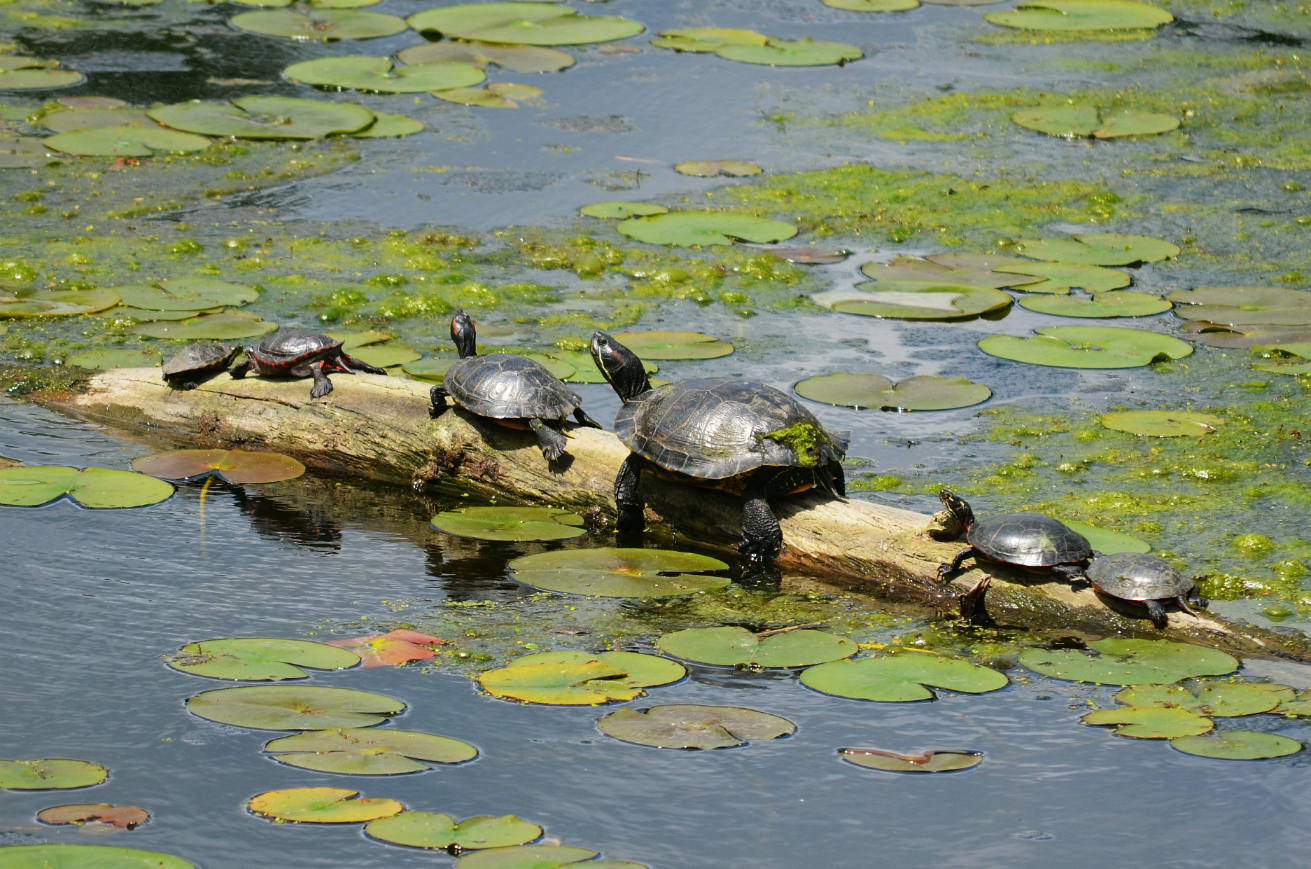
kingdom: Animalia
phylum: Chordata
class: Testudines
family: Emydidae
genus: Chrysemys
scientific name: Chrysemys picta
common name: Painted turtle
